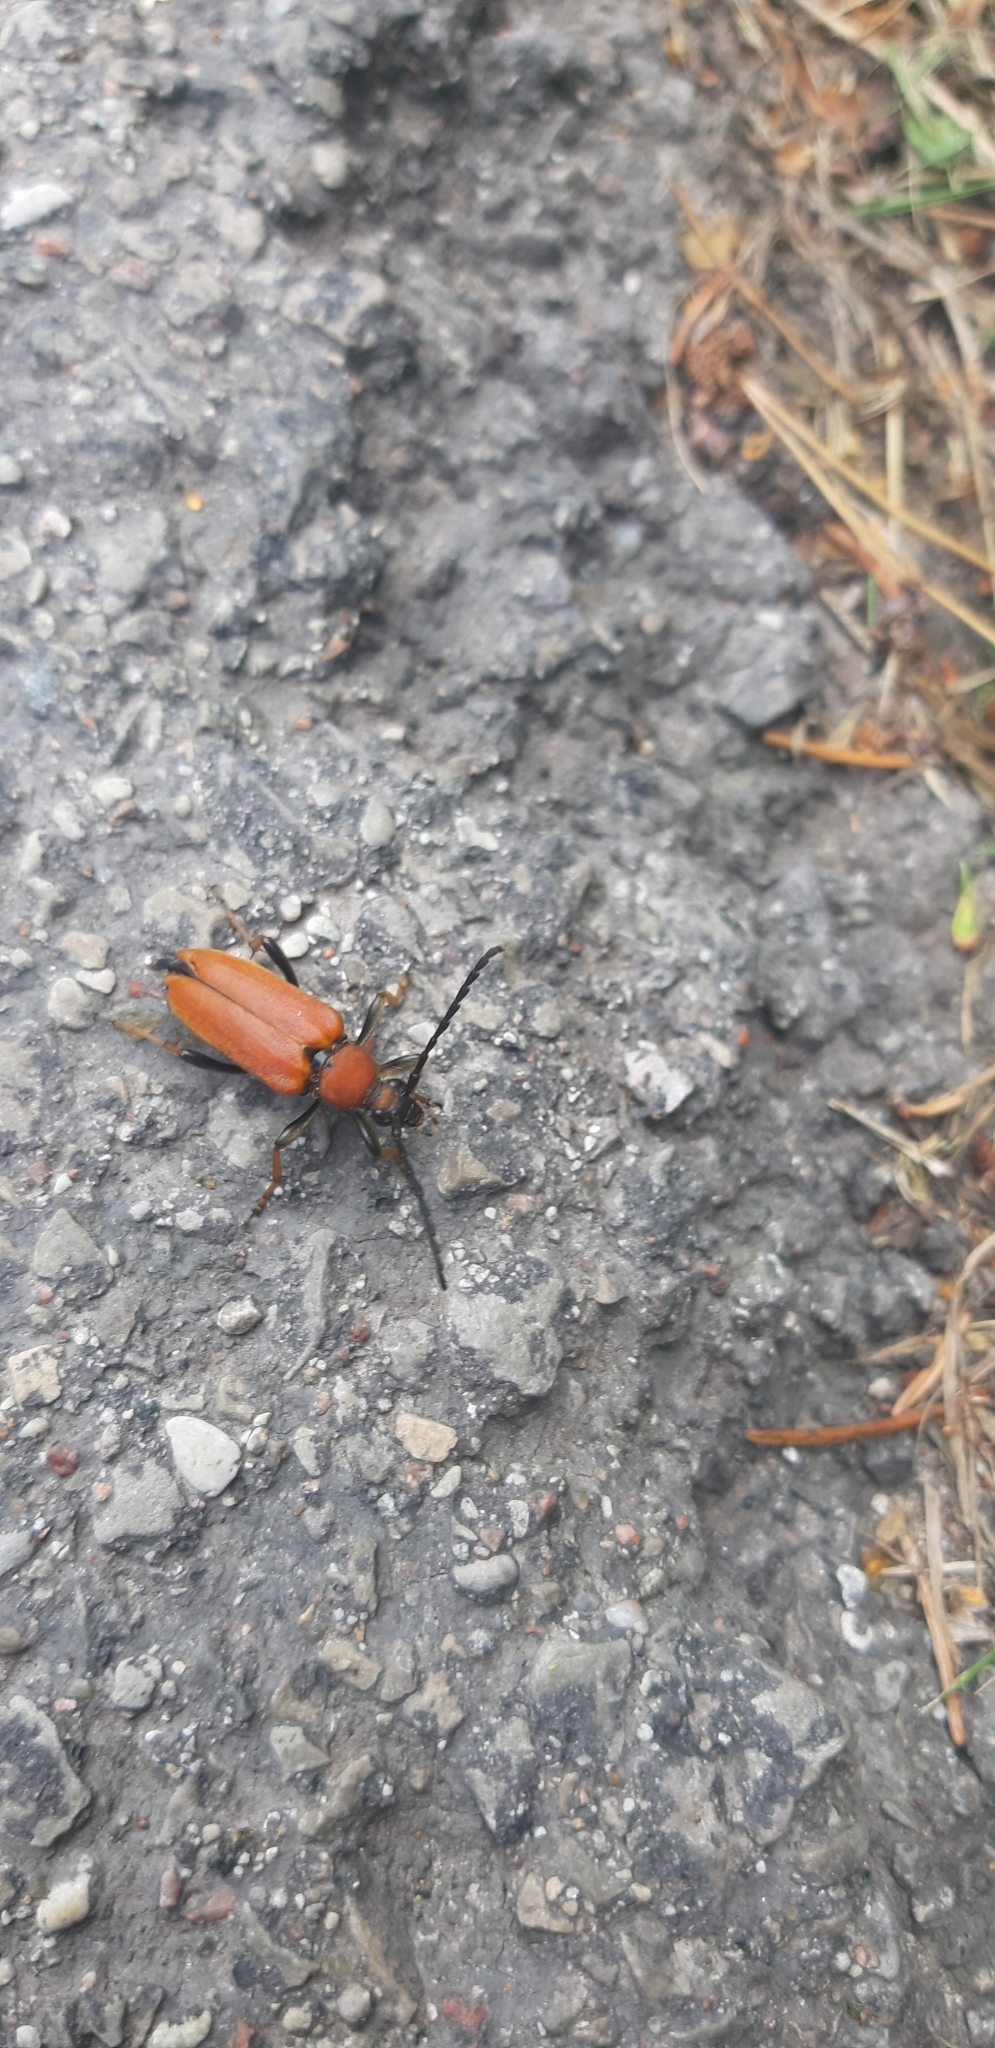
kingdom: Animalia
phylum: Arthropoda
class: Insecta
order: Coleoptera
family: Cerambycidae
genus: Stictoleptura
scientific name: Stictoleptura rubra
